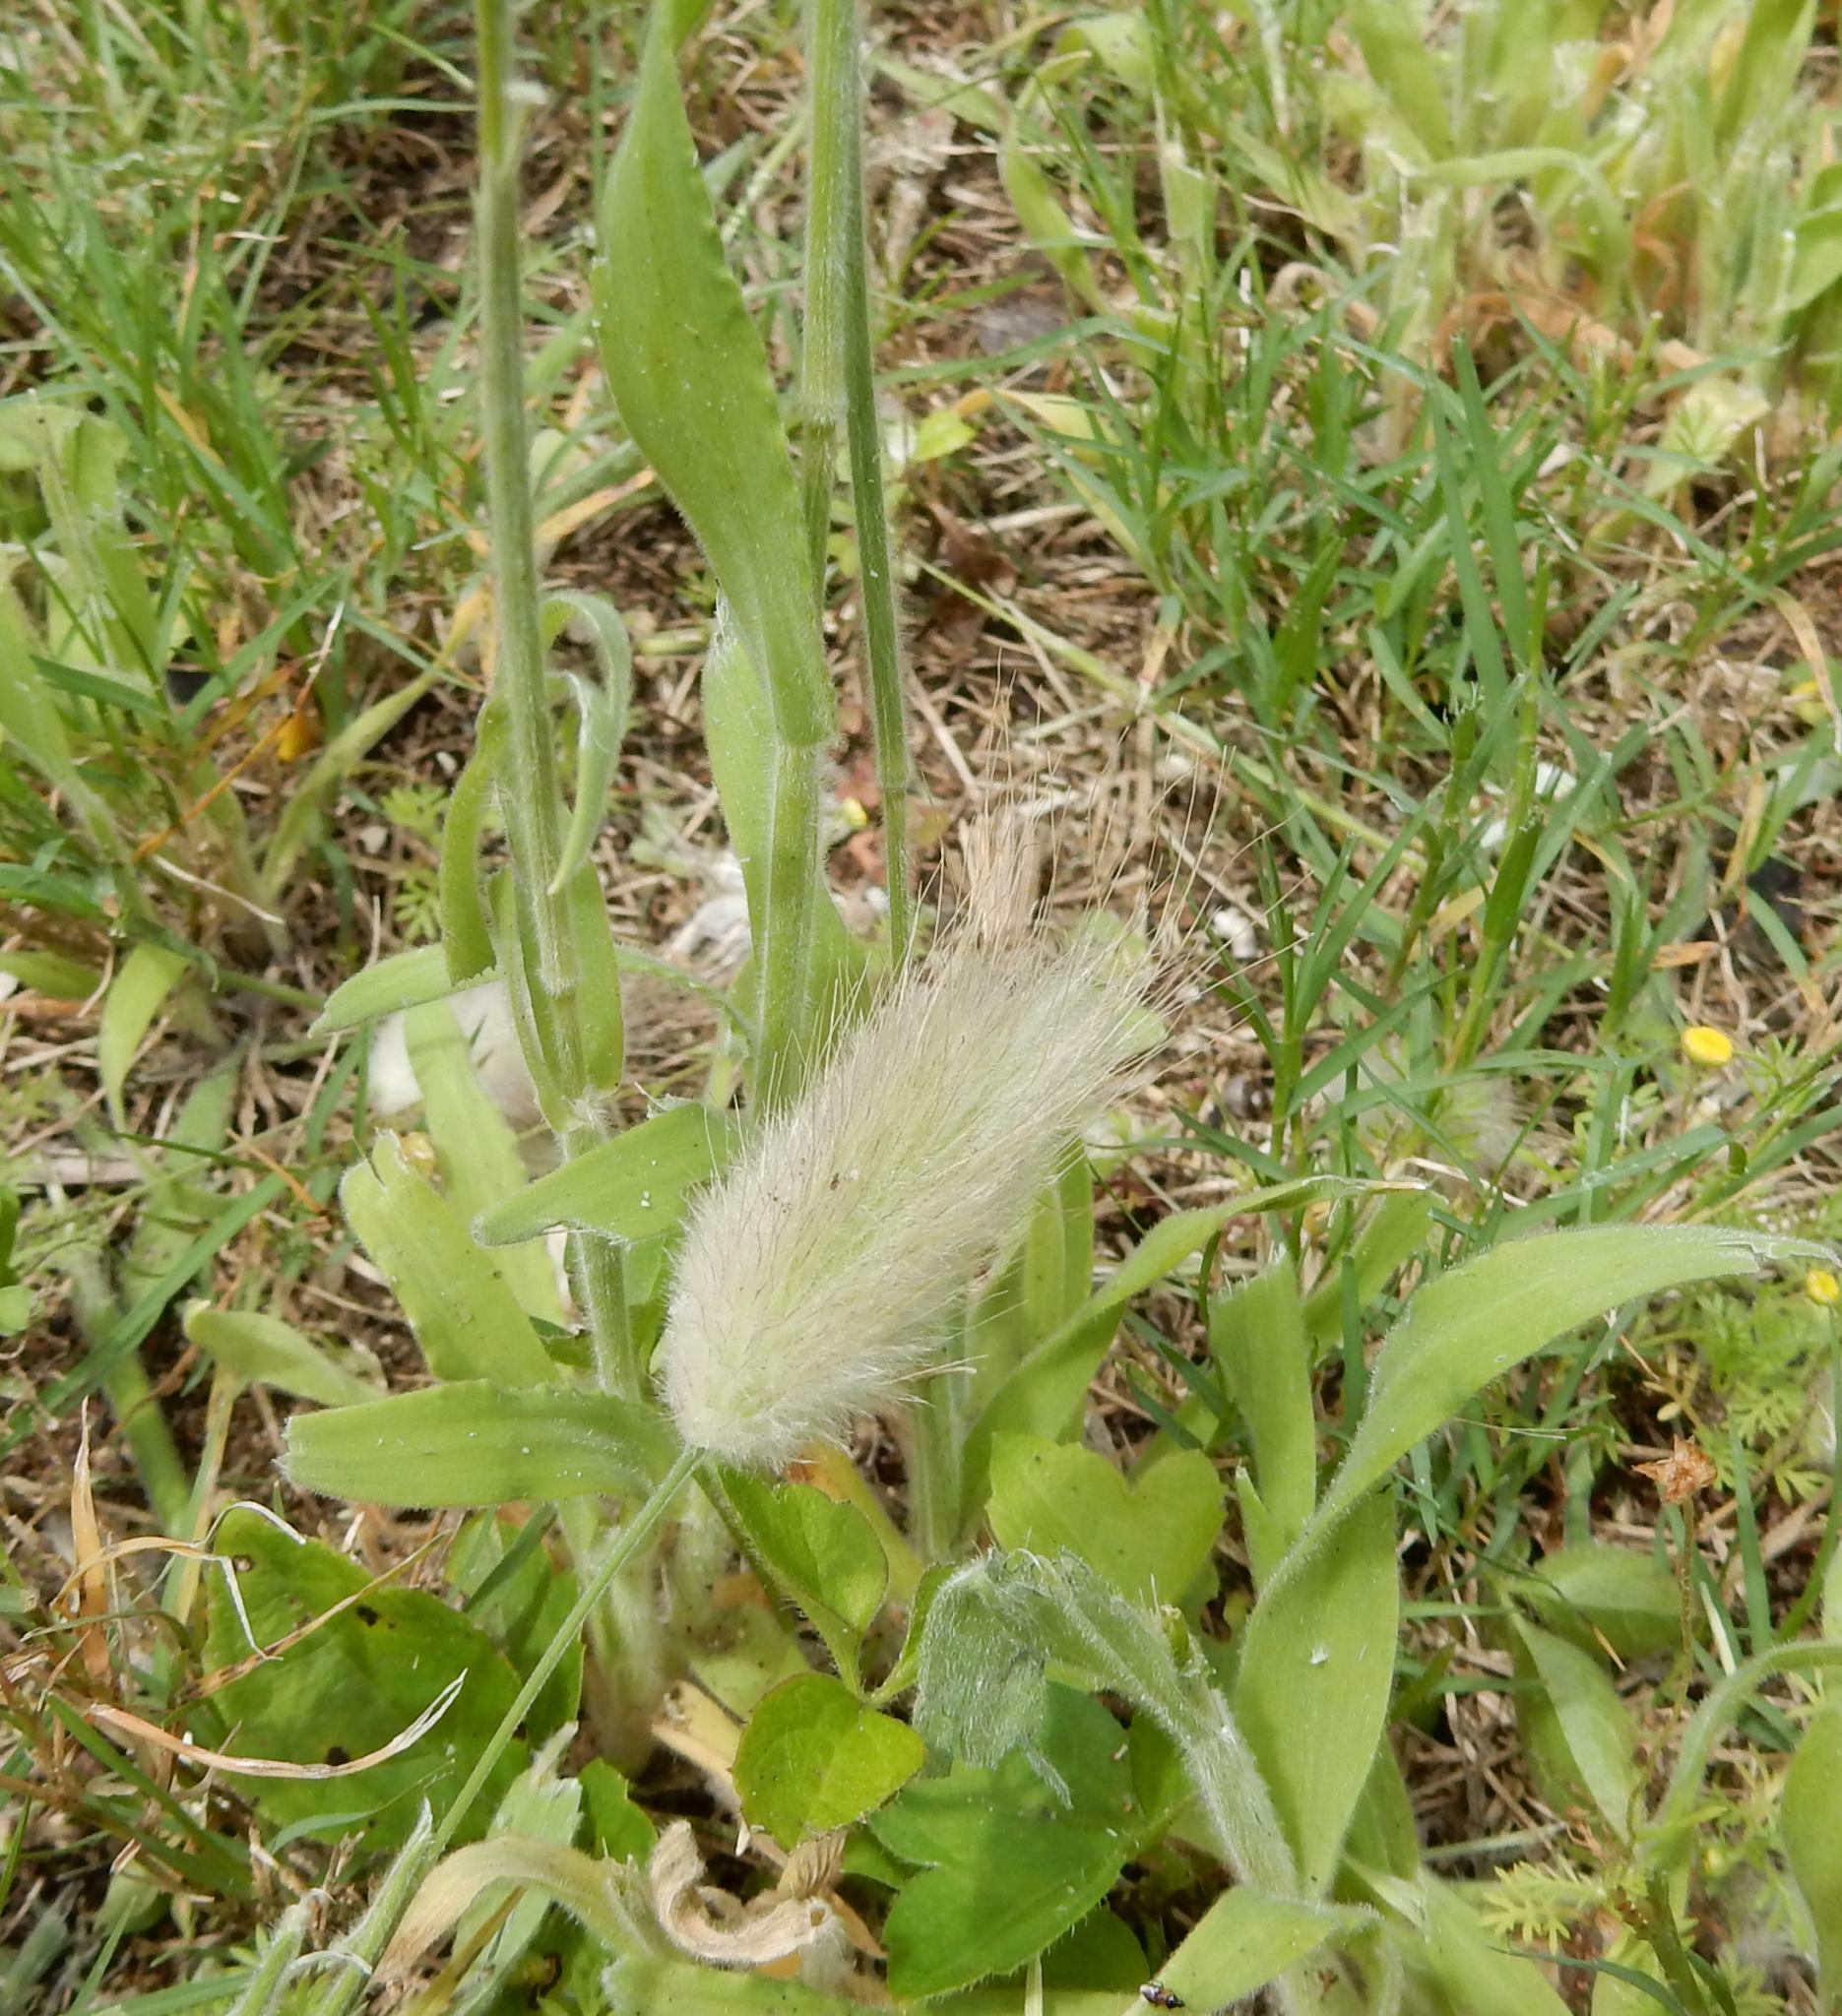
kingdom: Plantae
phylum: Tracheophyta
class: Liliopsida
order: Poales
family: Poaceae
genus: Lagurus
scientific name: Lagurus ovatus
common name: Hare's-tail
